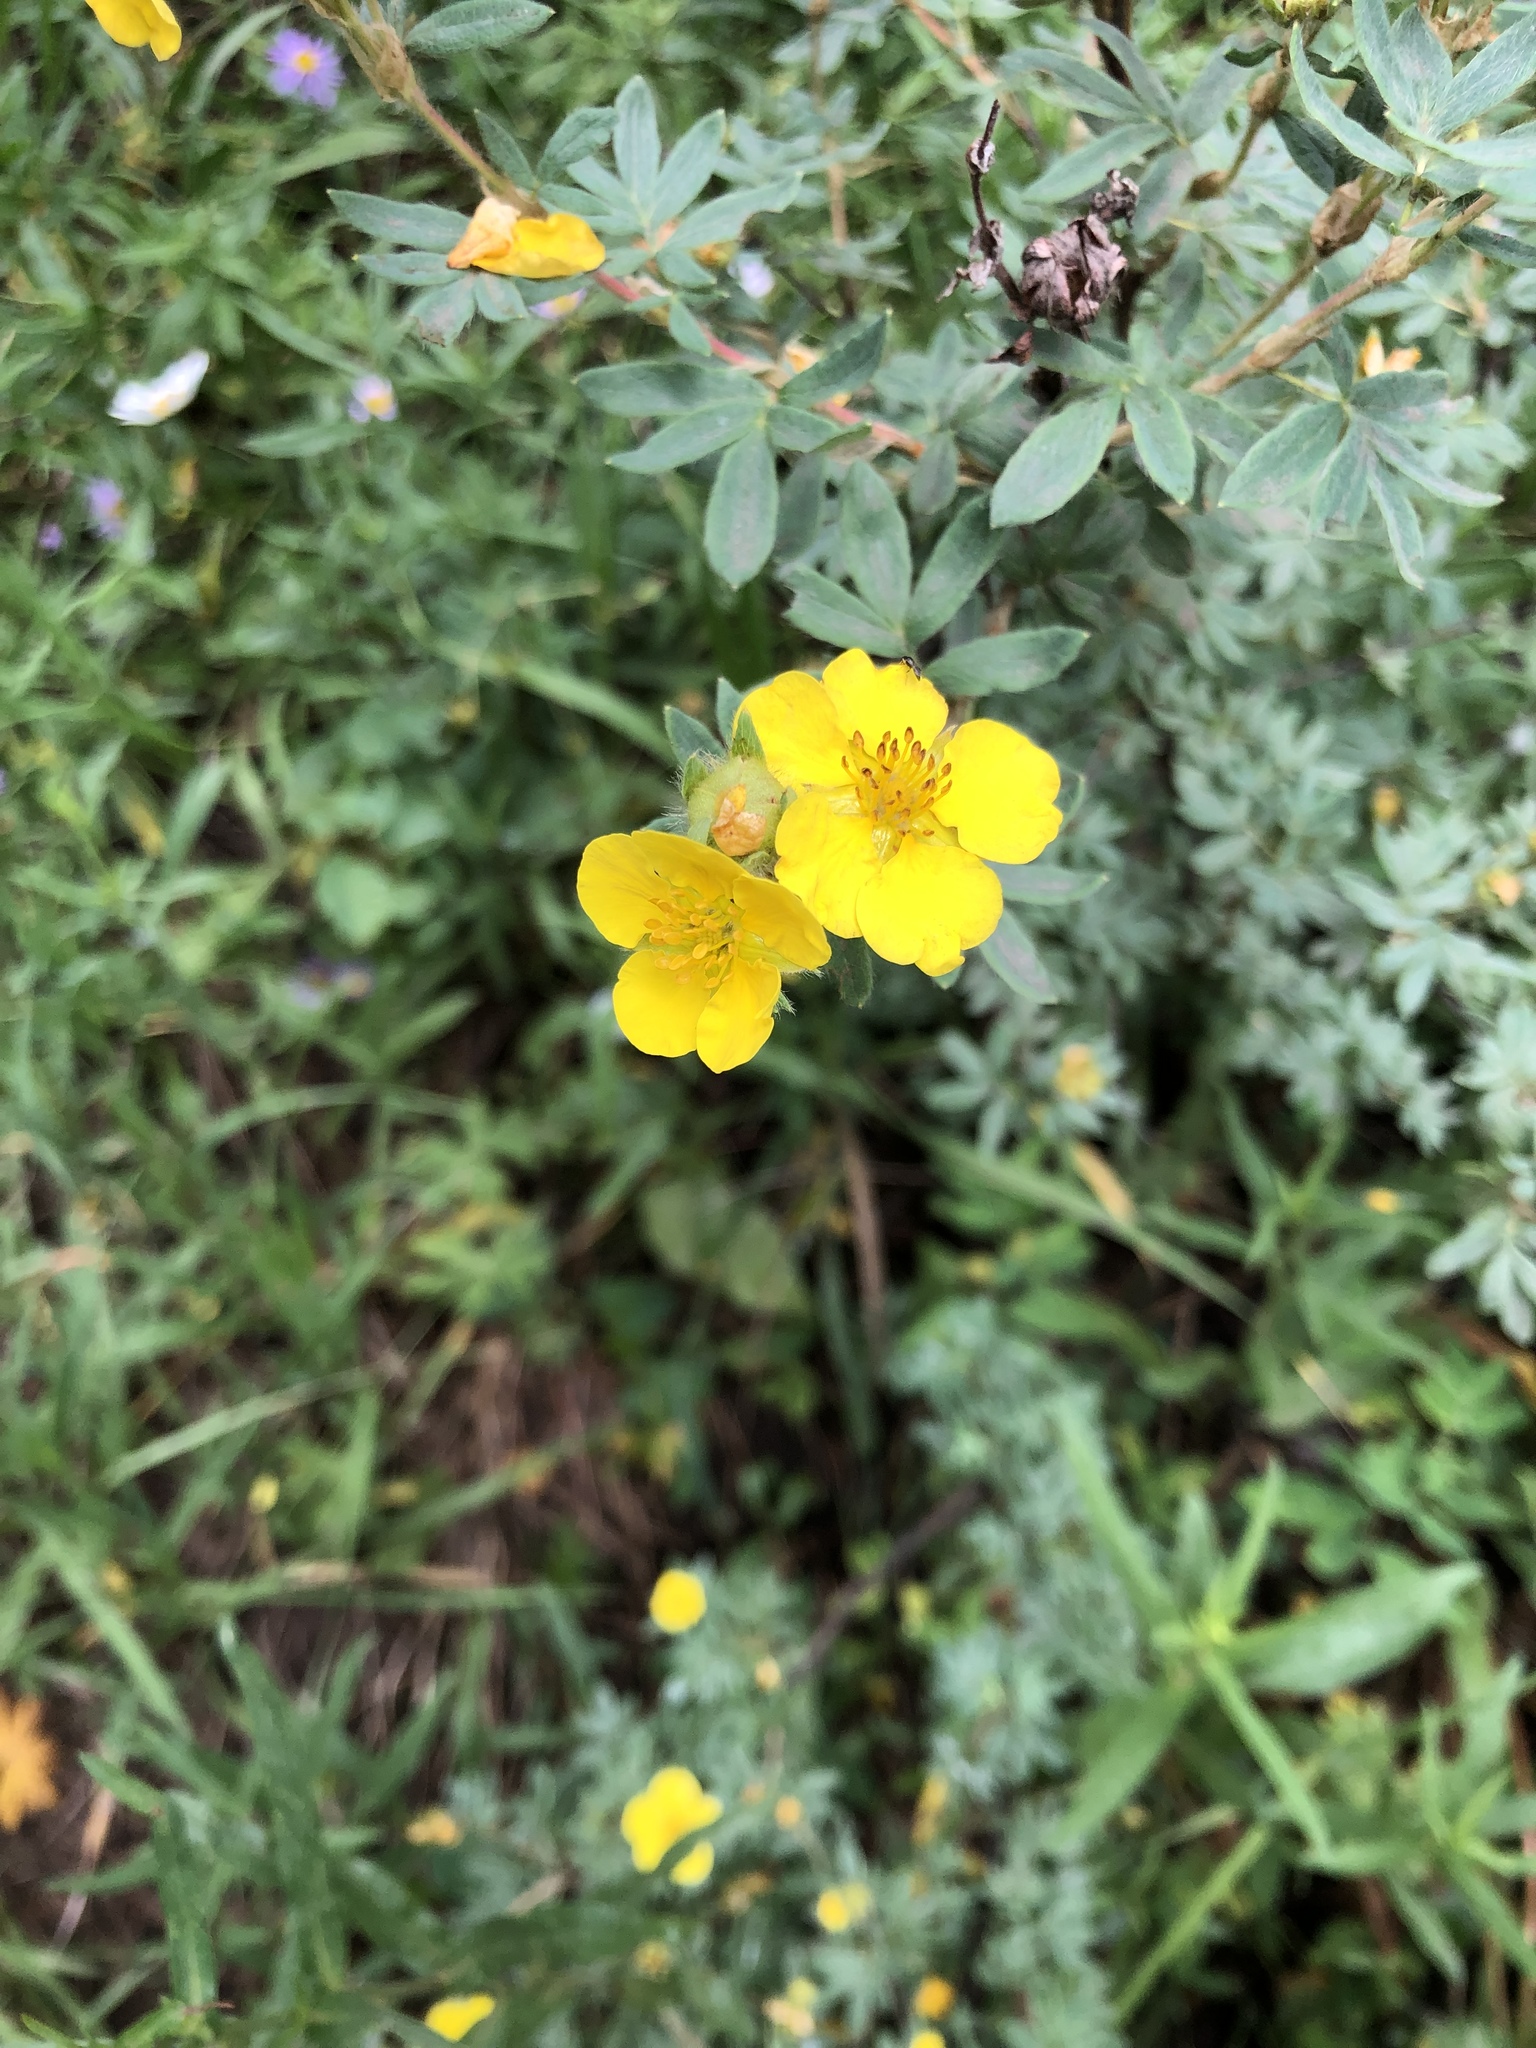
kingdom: Plantae
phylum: Tracheophyta
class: Magnoliopsida
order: Rosales
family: Rosaceae
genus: Dasiphora
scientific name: Dasiphora fruticosa
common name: Shrubby cinquefoil
